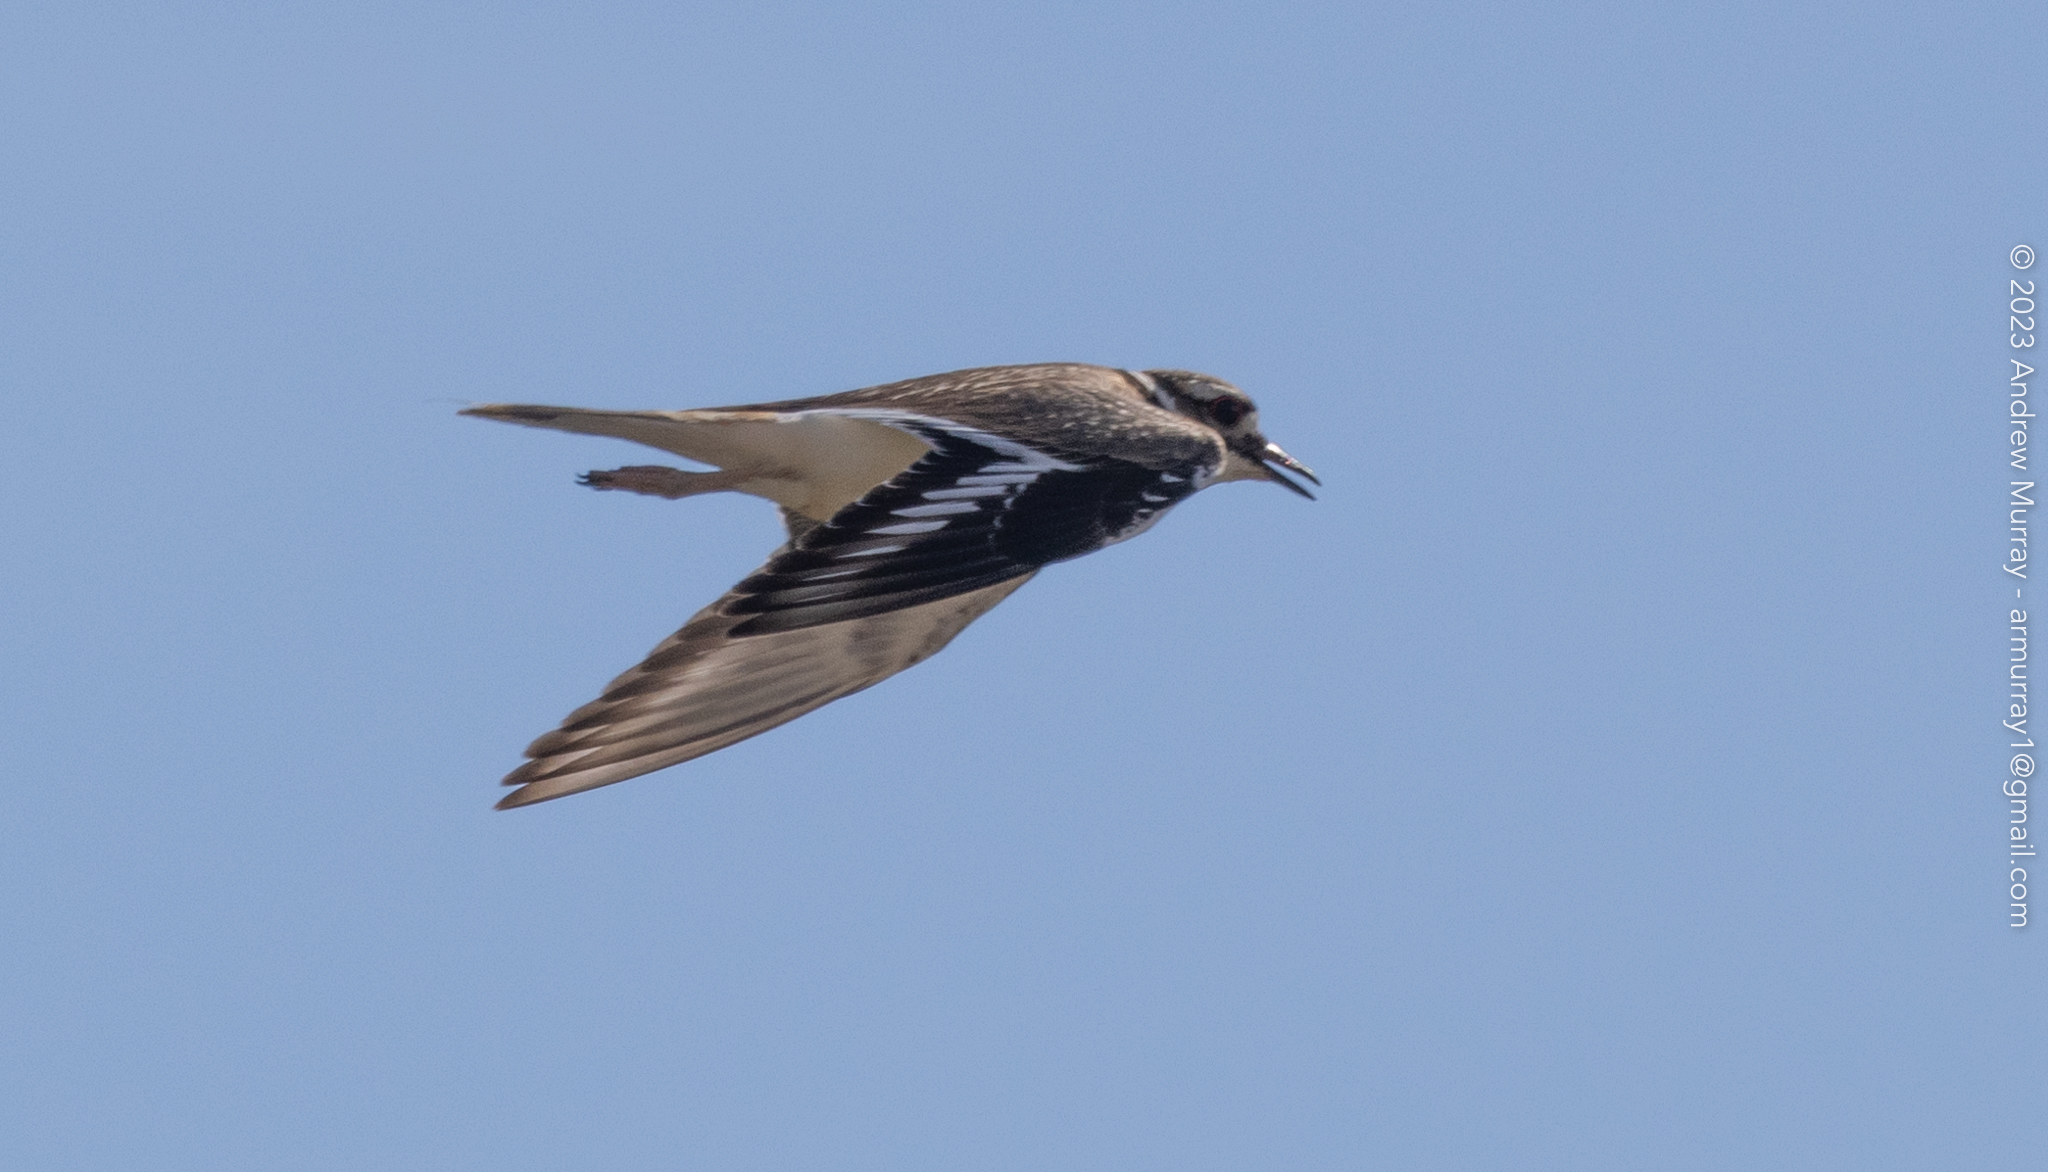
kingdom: Animalia
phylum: Chordata
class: Aves
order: Charadriiformes
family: Charadriidae
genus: Charadrius
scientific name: Charadrius vociferus
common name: Killdeer
